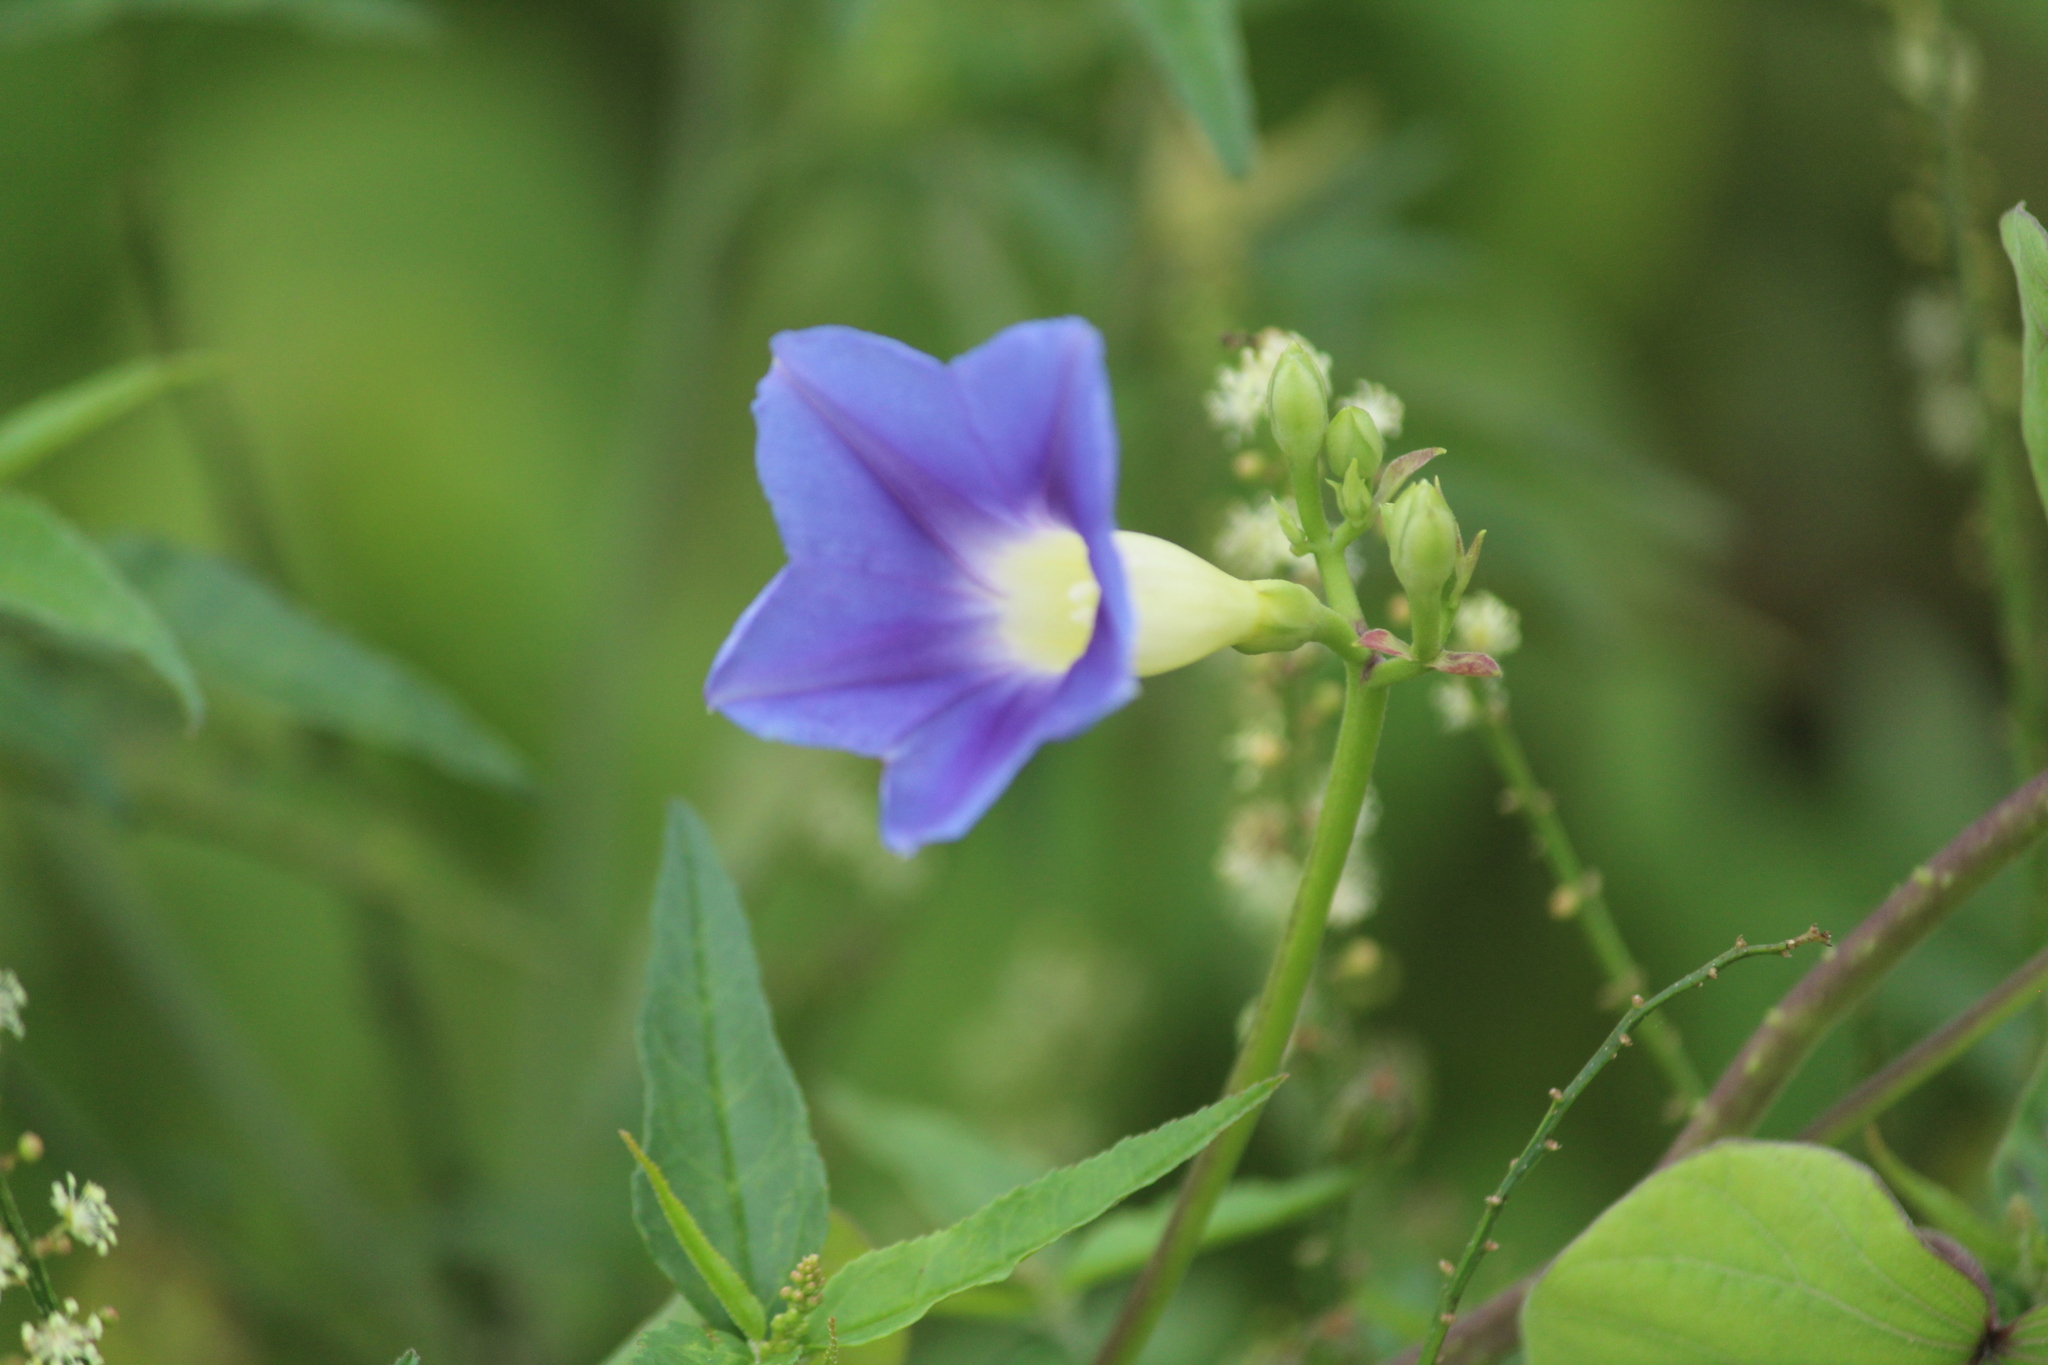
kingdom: Plantae
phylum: Tracheophyta
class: Magnoliopsida
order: Solanales
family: Convolvulaceae
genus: Ipomoea
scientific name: Ipomoea parasitica
